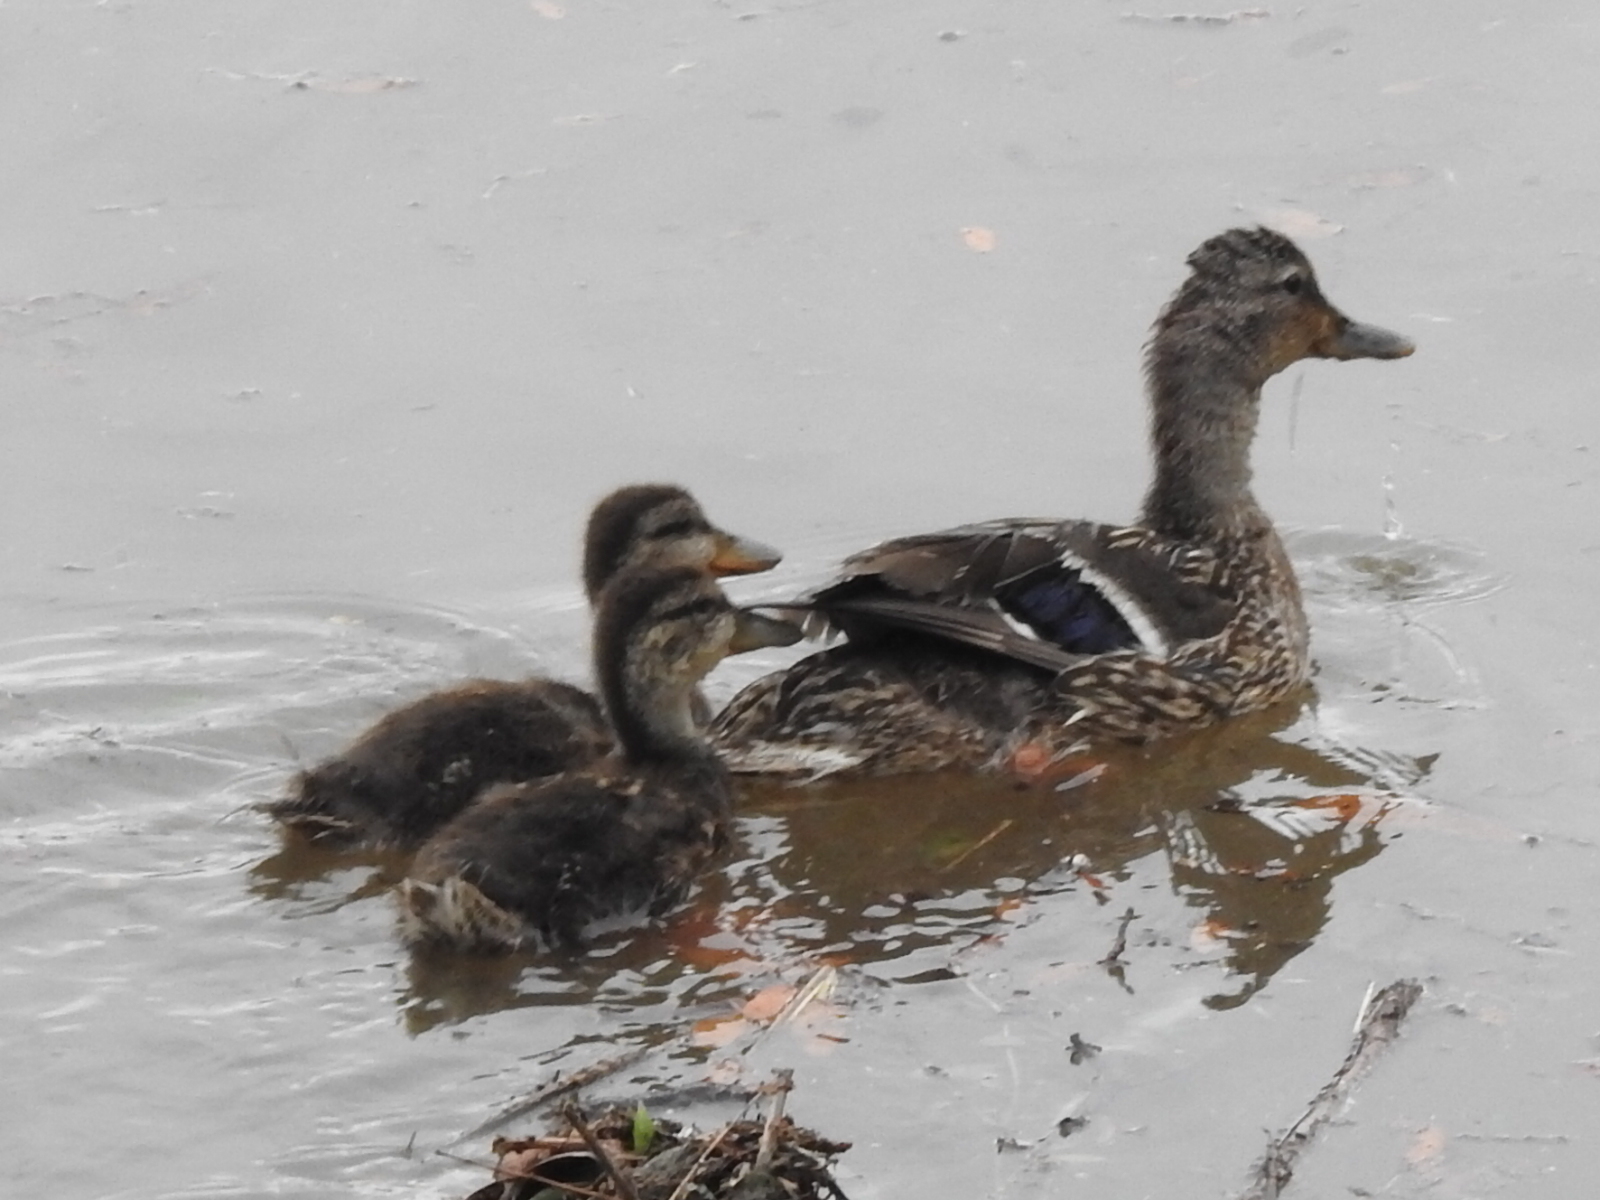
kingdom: Animalia
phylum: Chordata
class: Aves
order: Anseriformes
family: Anatidae
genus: Anas
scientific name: Anas platyrhynchos
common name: Mallard
